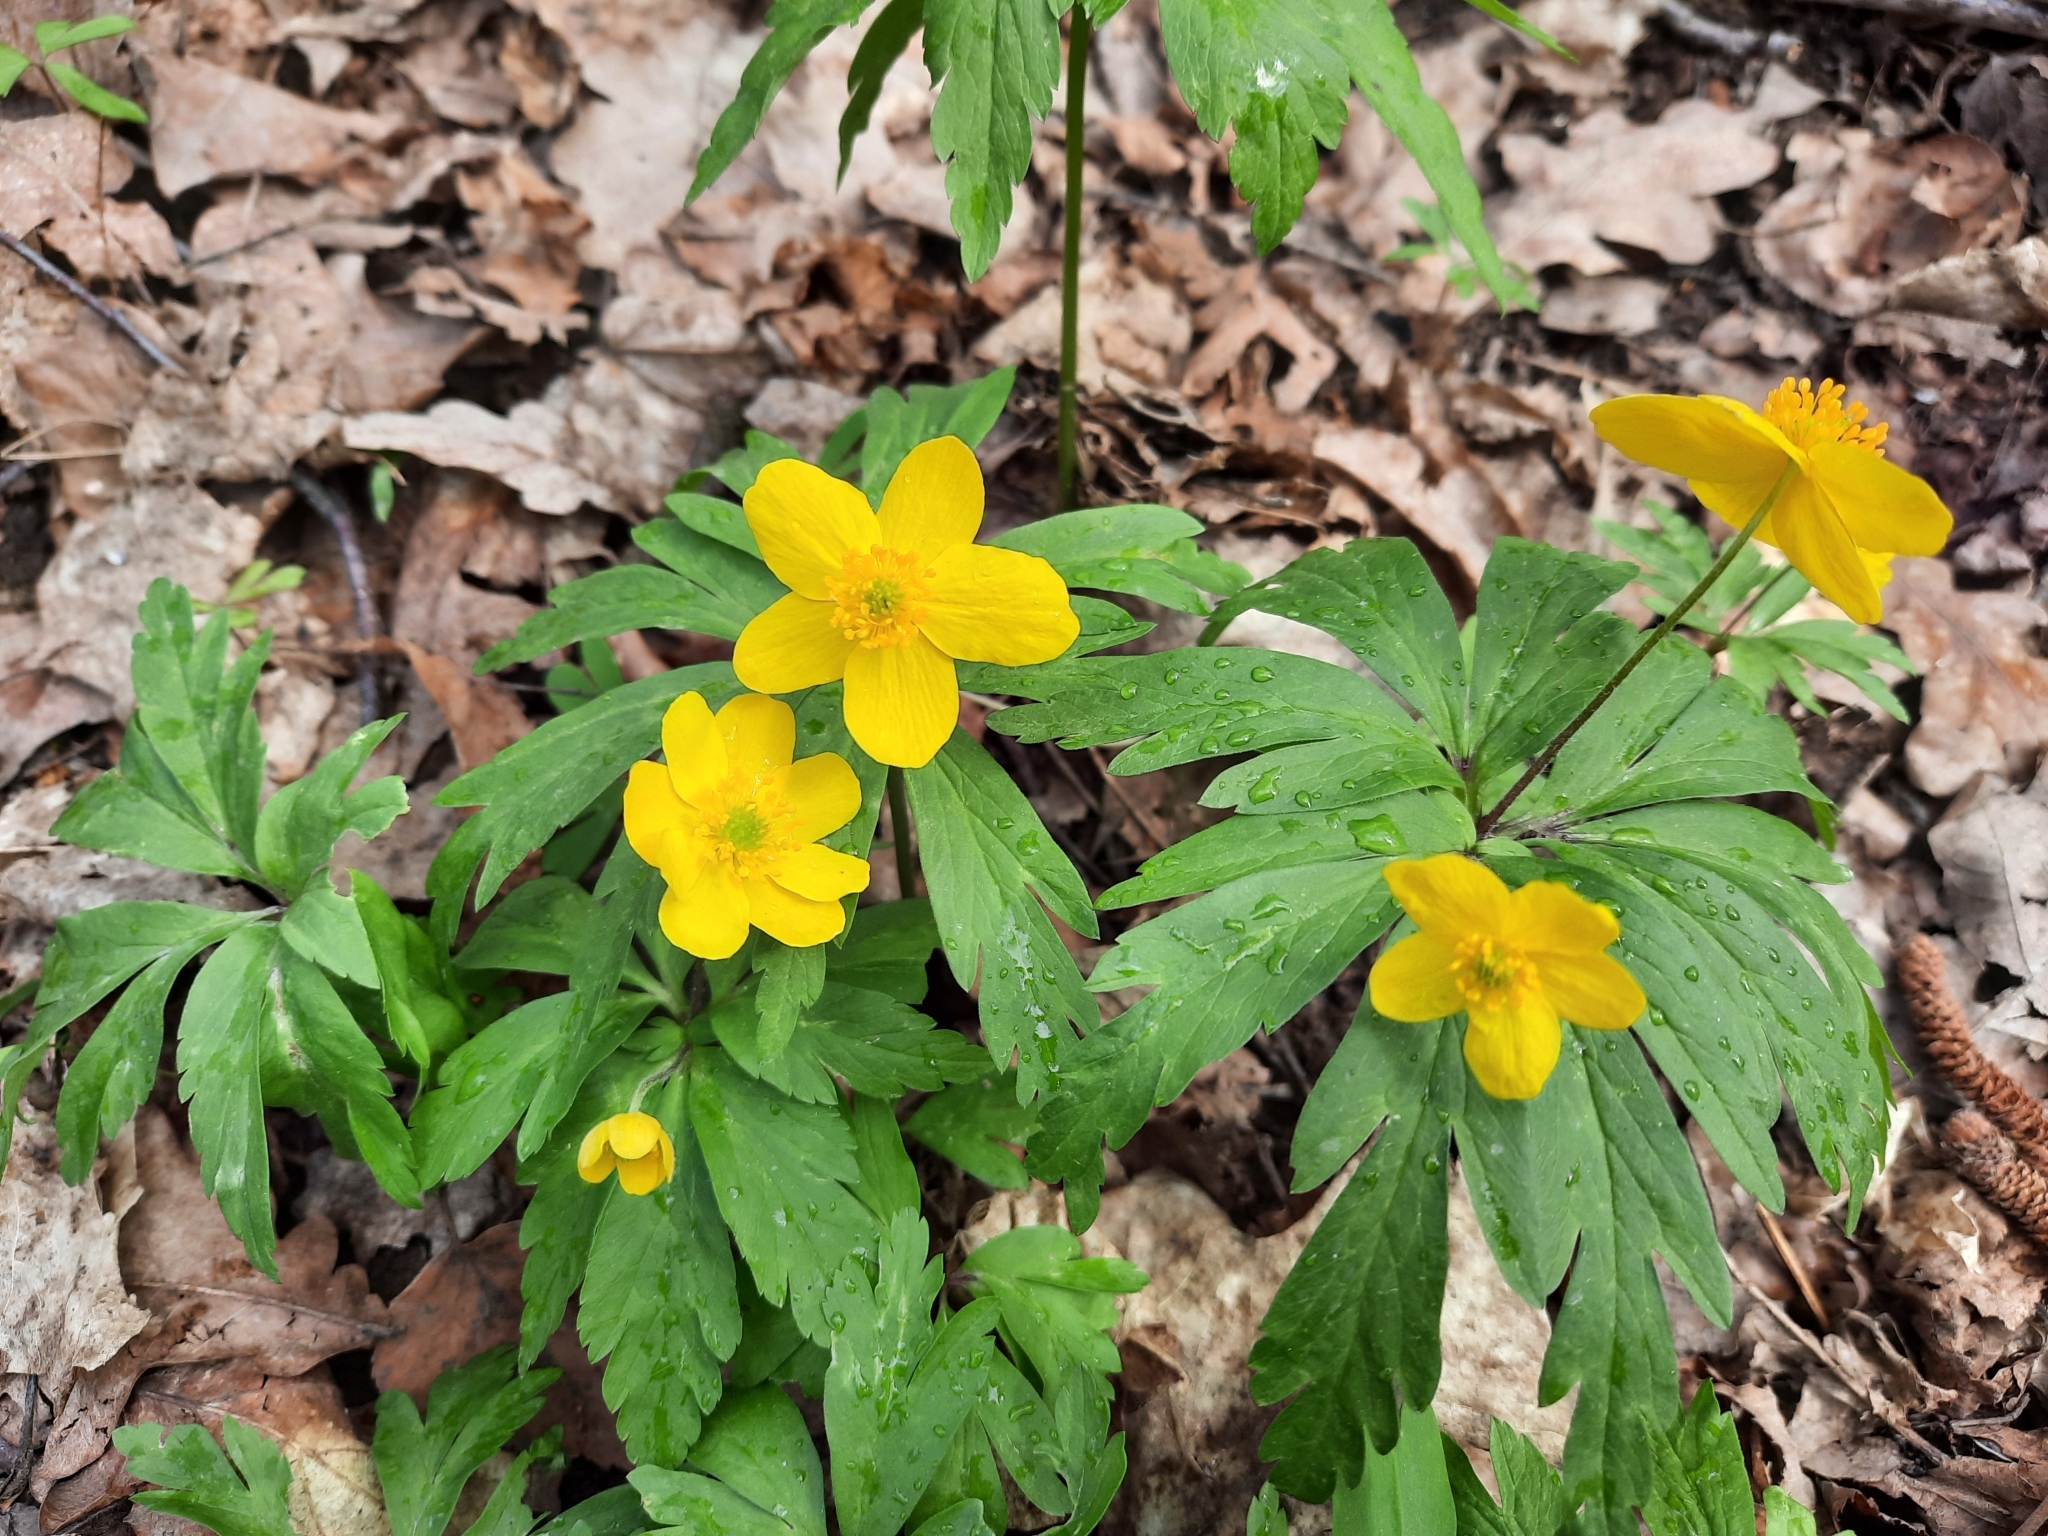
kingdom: Plantae
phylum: Tracheophyta
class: Magnoliopsida
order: Ranunculales
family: Ranunculaceae
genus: Anemone
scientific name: Anemone ranunculoides
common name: Yellow anemone
